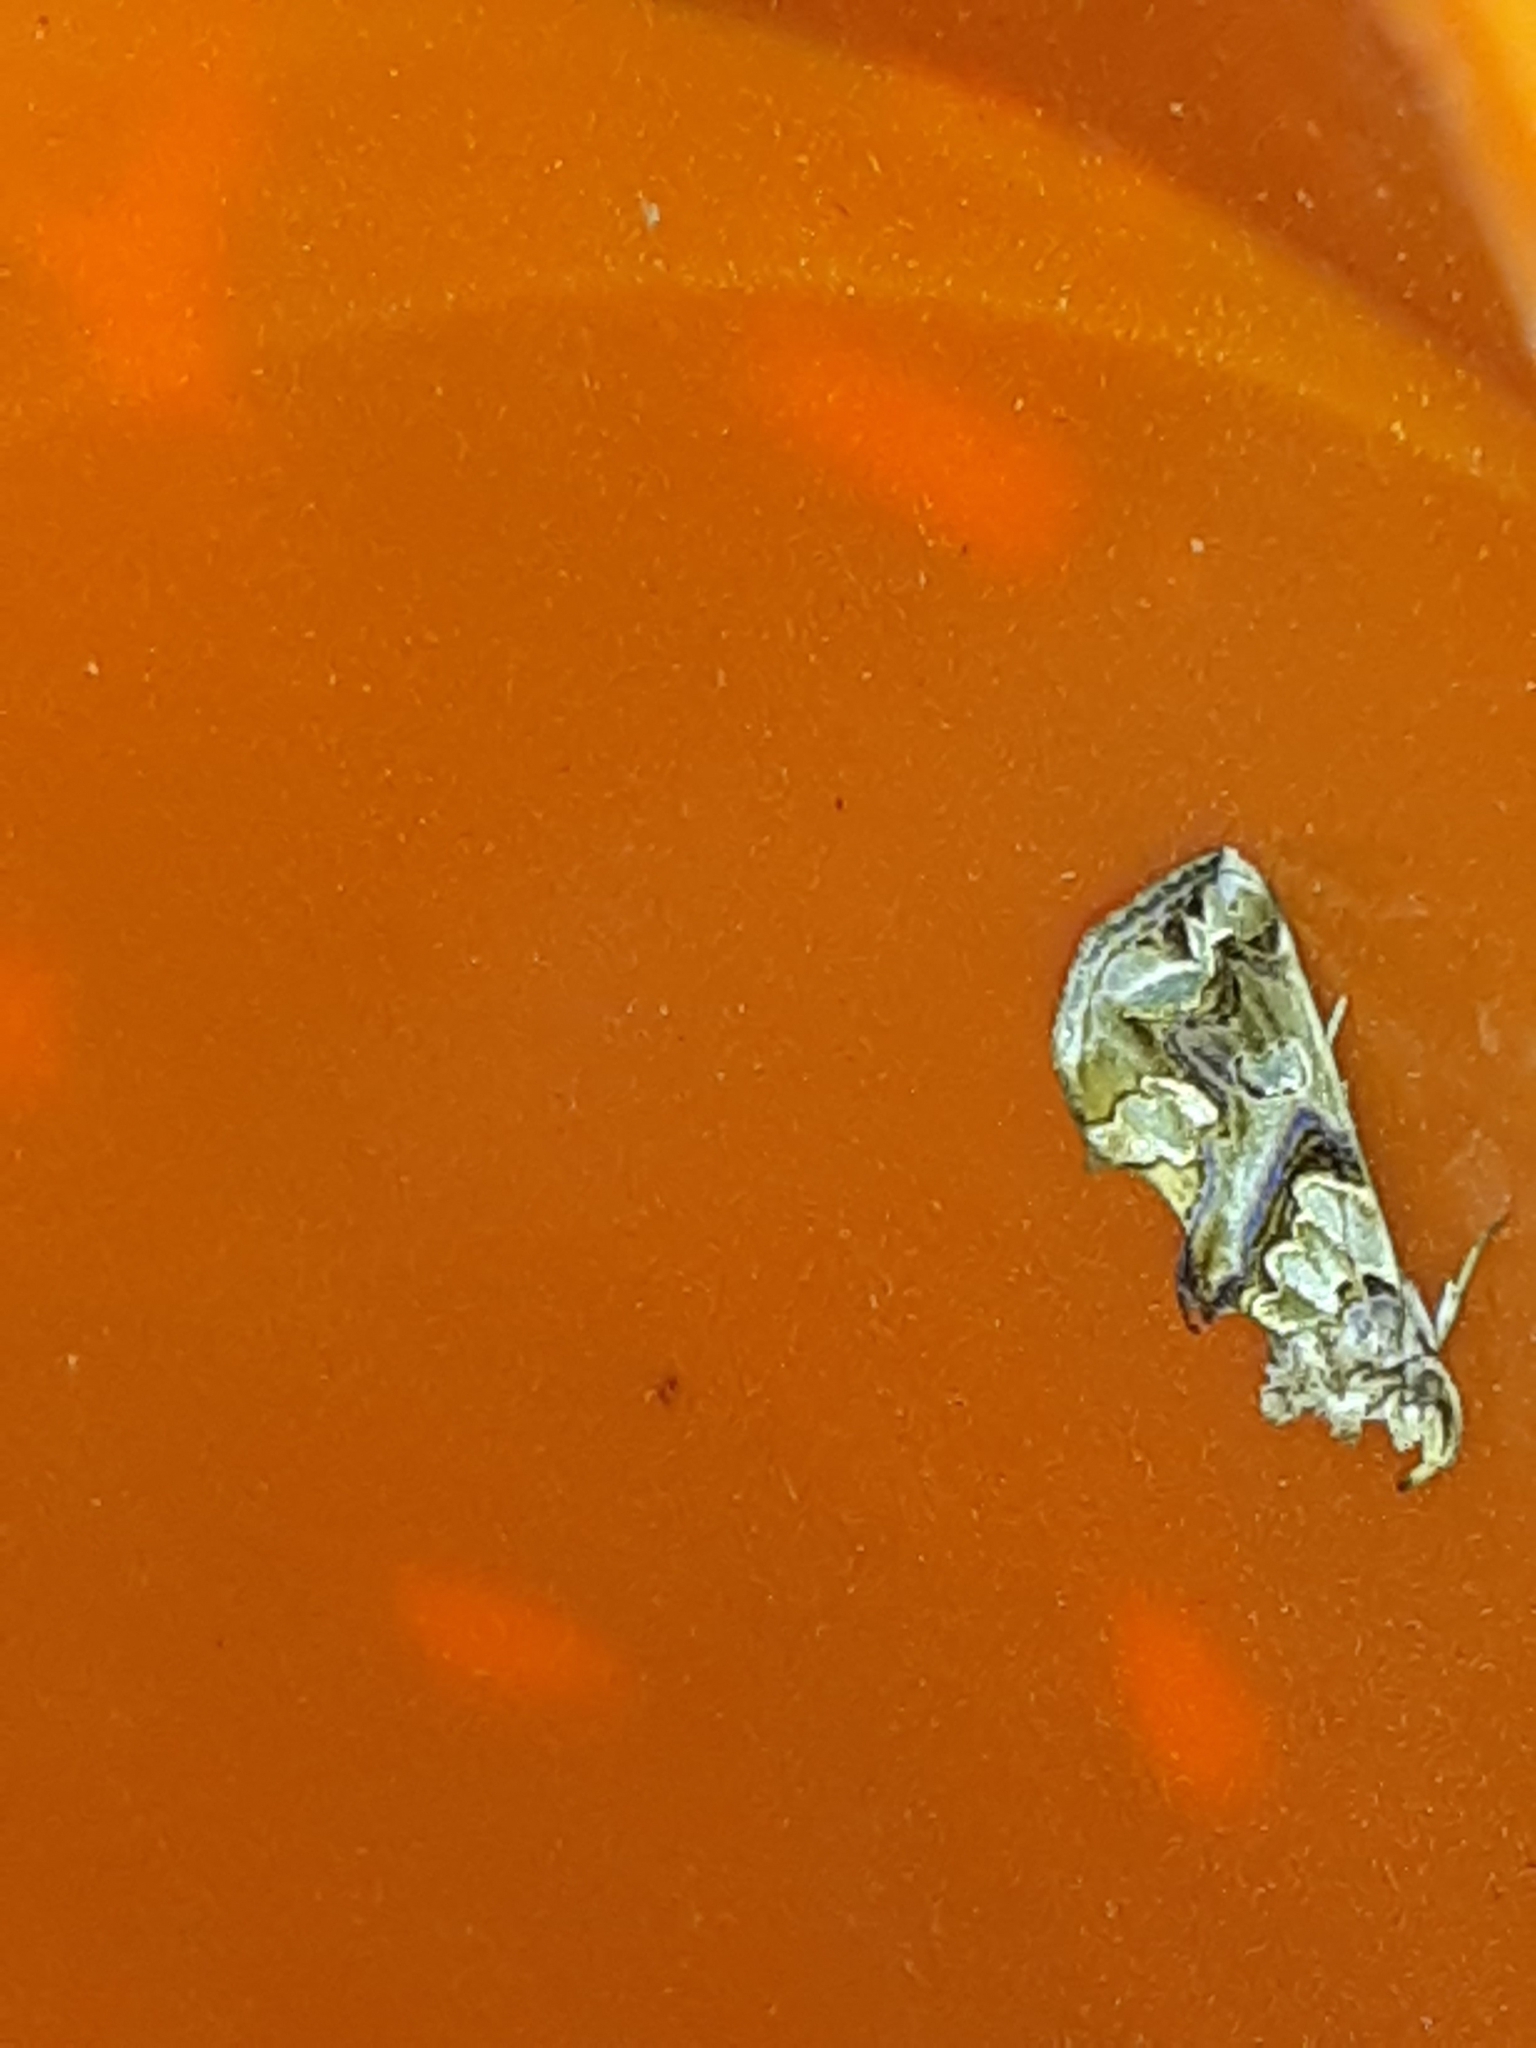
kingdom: Animalia
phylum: Arthropoda
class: Insecta
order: Lepidoptera
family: Erebidae
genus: Plusiodonta
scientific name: Plusiodonta compressipalpis
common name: Moonseed moth
